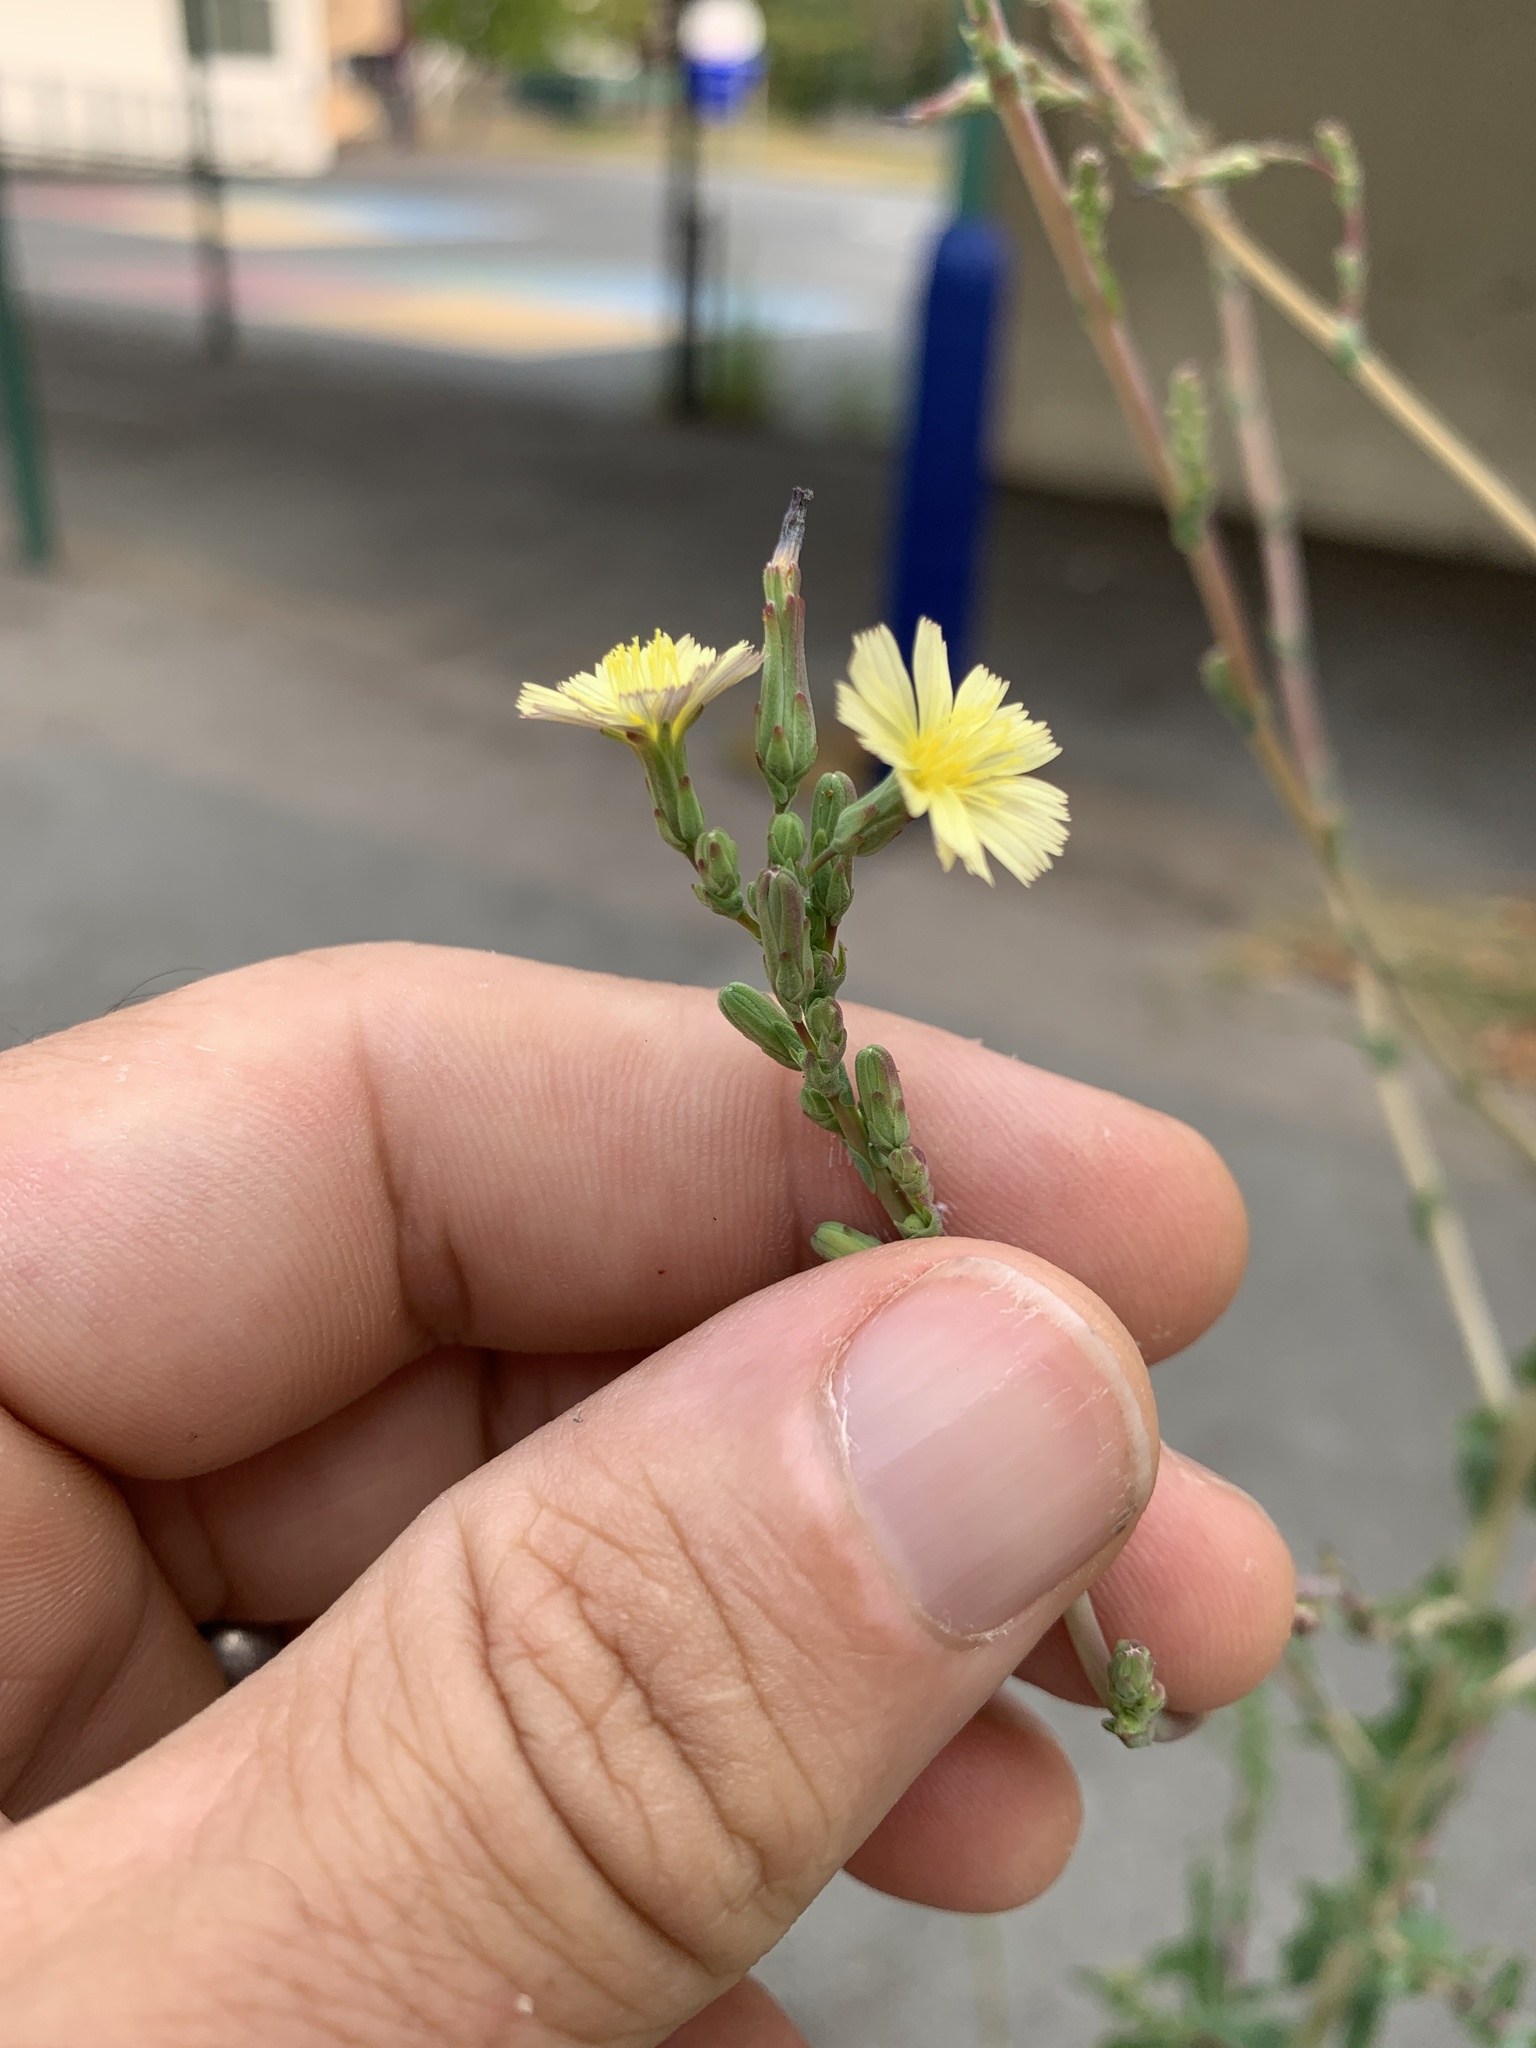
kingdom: Plantae
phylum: Tracheophyta
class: Magnoliopsida
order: Asterales
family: Asteraceae
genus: Lactuca
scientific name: Lactuca serriola
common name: Prickly lettuce
